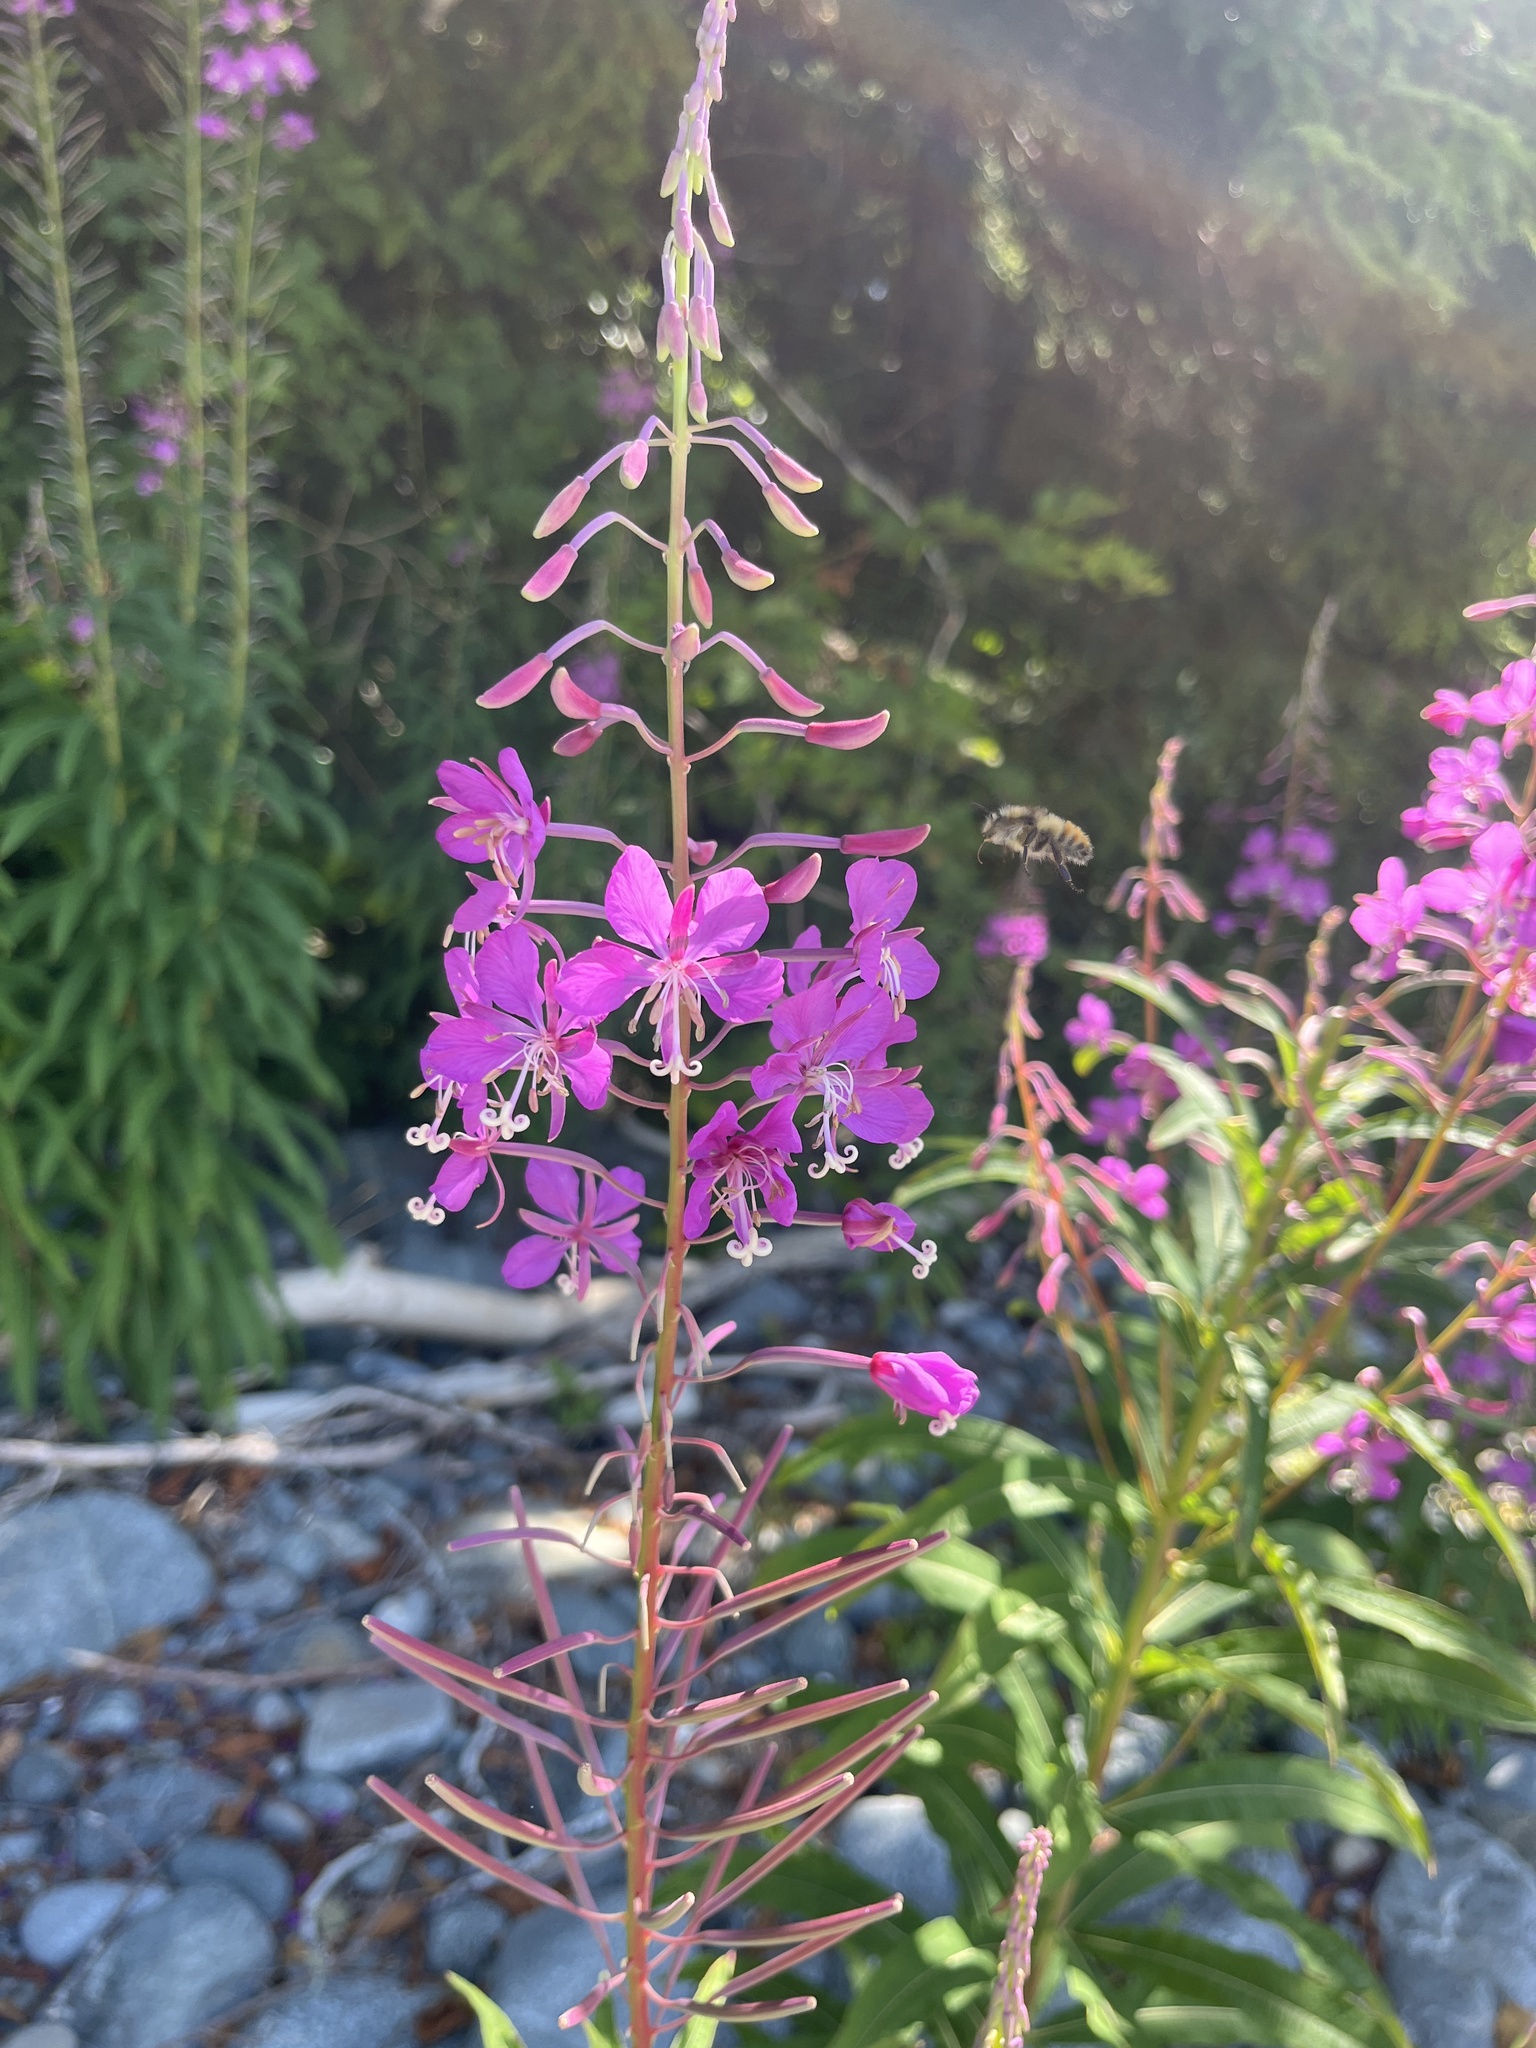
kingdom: Plantae
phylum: Tracheophyta
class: Magnoliopsida
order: Myrtales
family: Onagraceae
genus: Chamaenerion
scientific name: Chamaenerion angustifolium
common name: Fireweed
